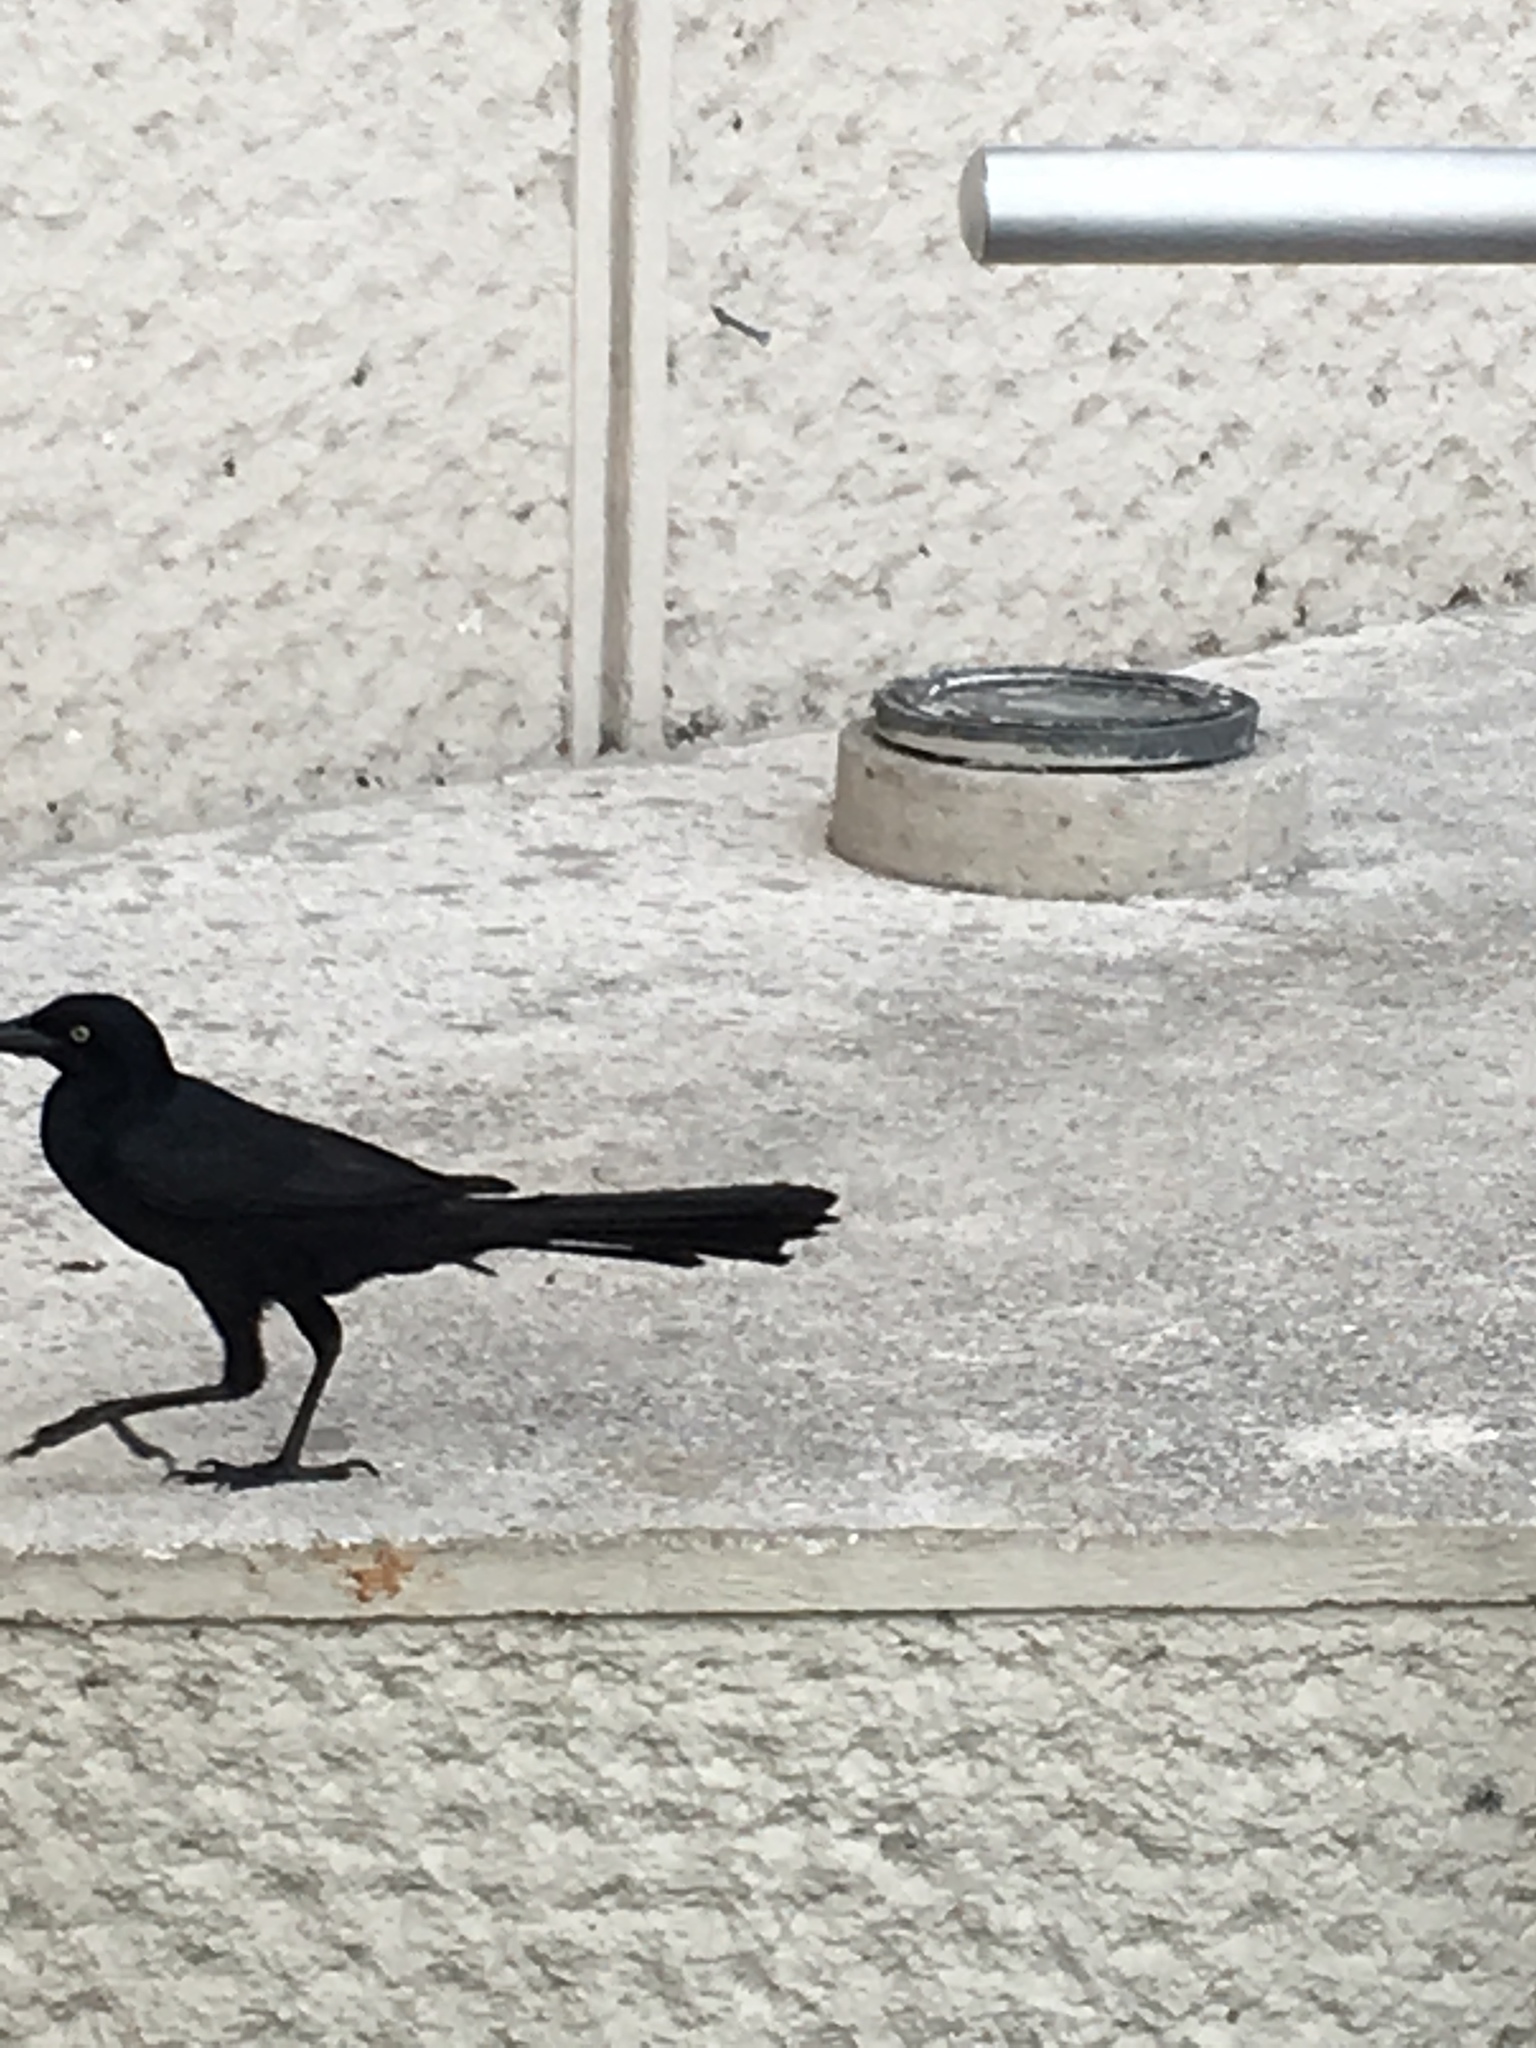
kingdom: Animalia
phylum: Chordata
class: Aves
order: Passeriformes
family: Icteridae
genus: Quiscalus
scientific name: Quiscalus mexicanus
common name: Great-tailed grackle
